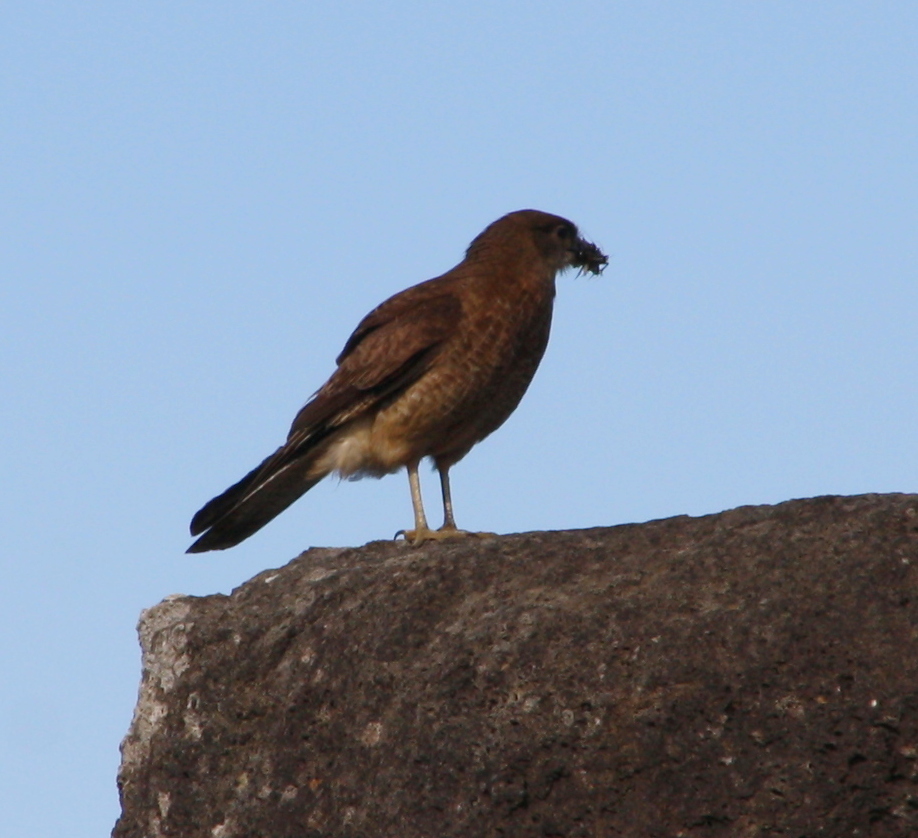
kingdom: Animalia
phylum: Chordata
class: Aves
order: Falconiformes
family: Falconidae
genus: Daptrius
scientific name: Daptrius
